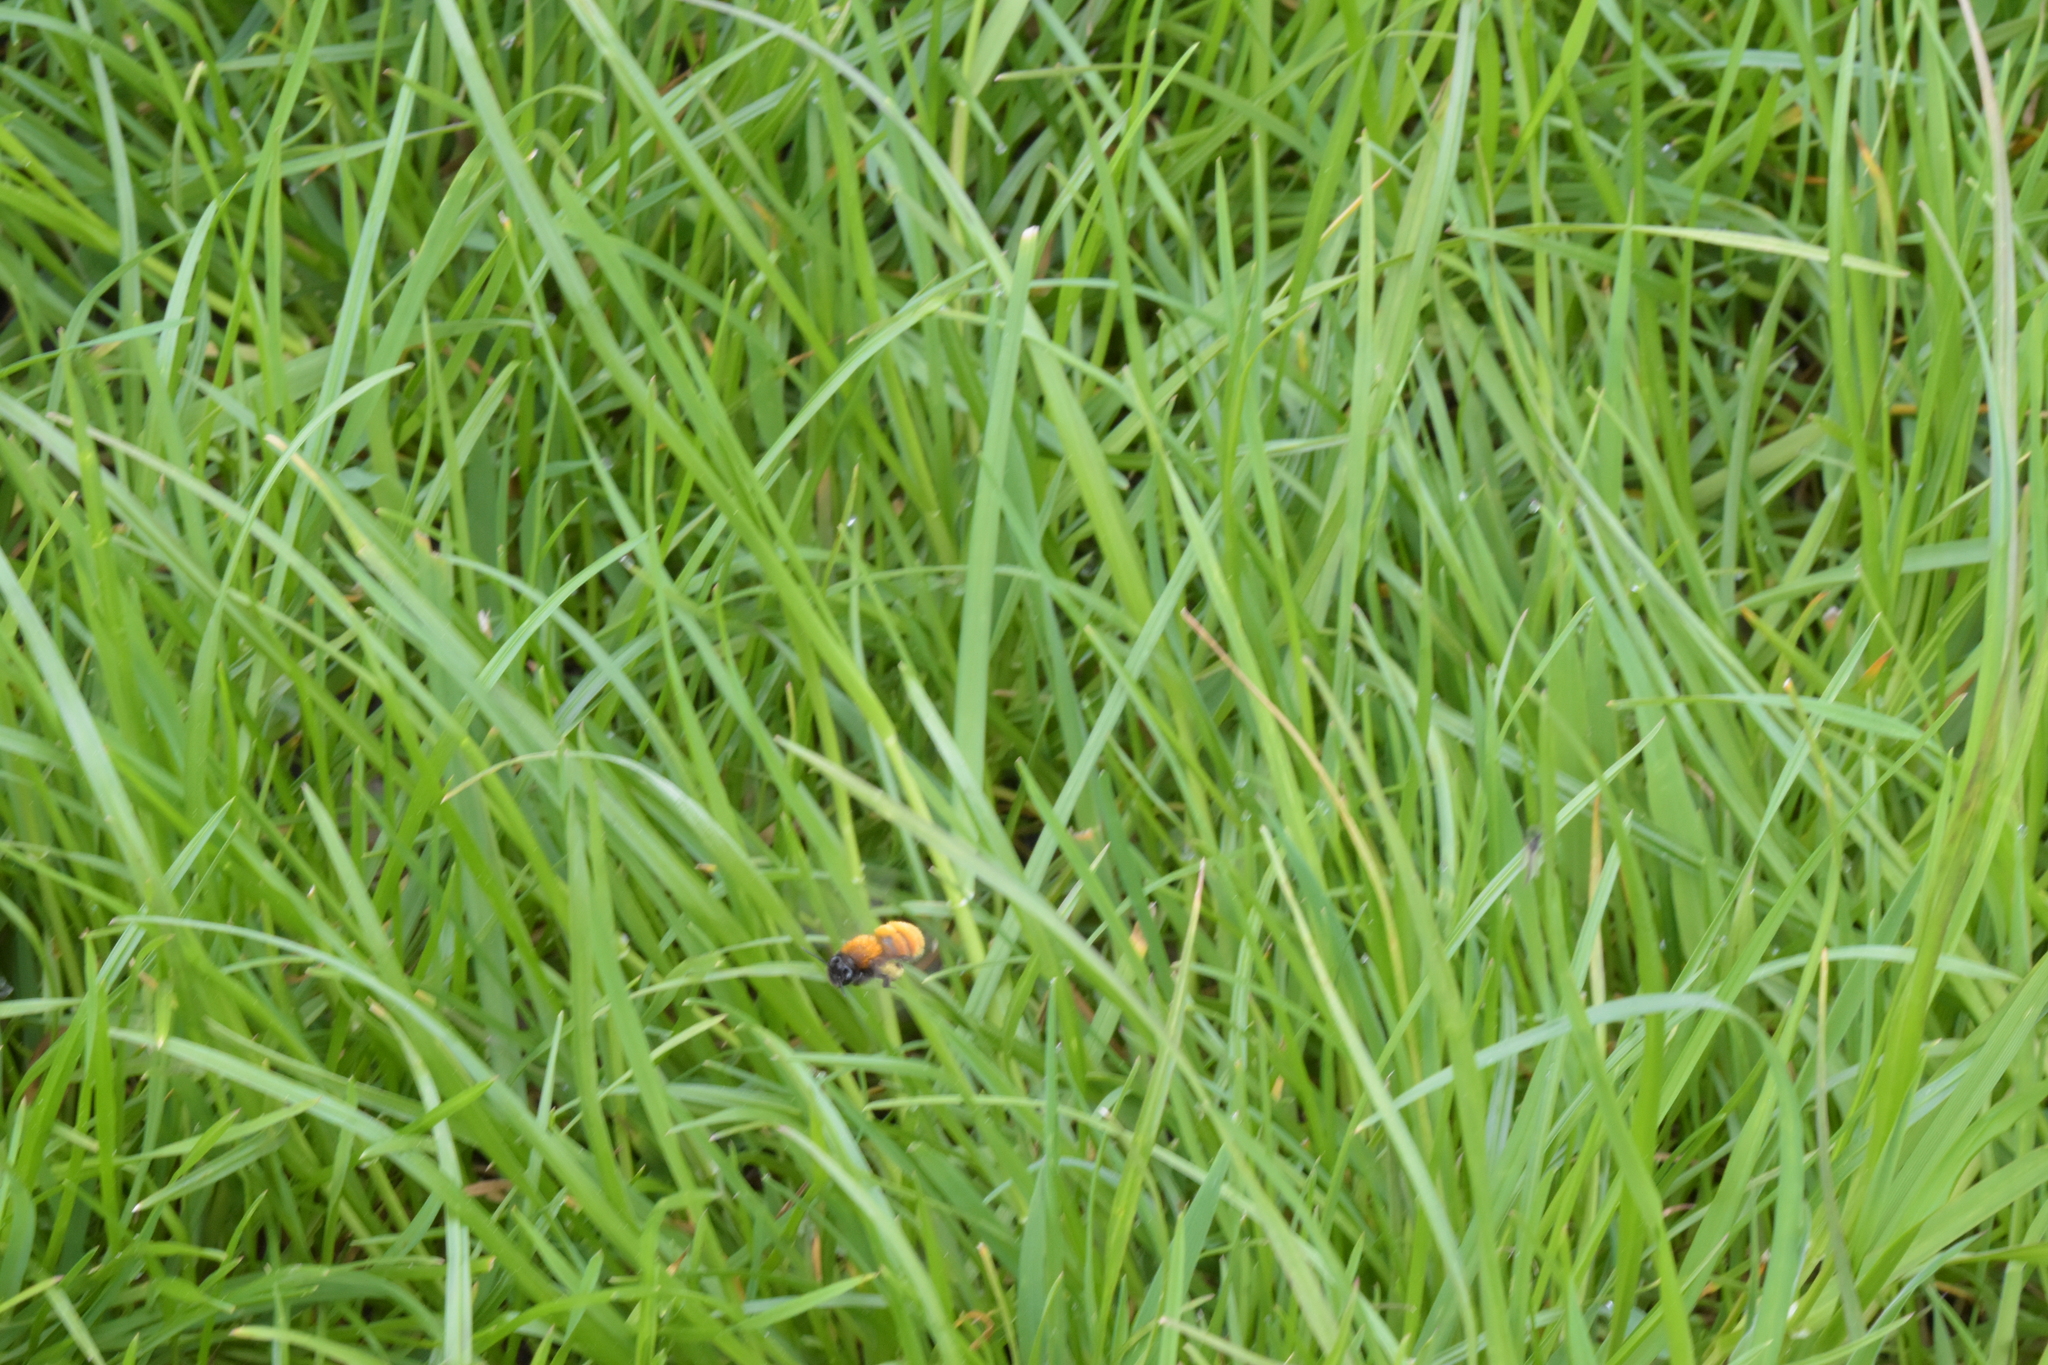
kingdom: Animalia
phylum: Arthropoda
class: Insecta
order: Hymenoptera
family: Andrenidae
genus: Andrena
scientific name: Andrena fulva
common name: Tawny mining bee
